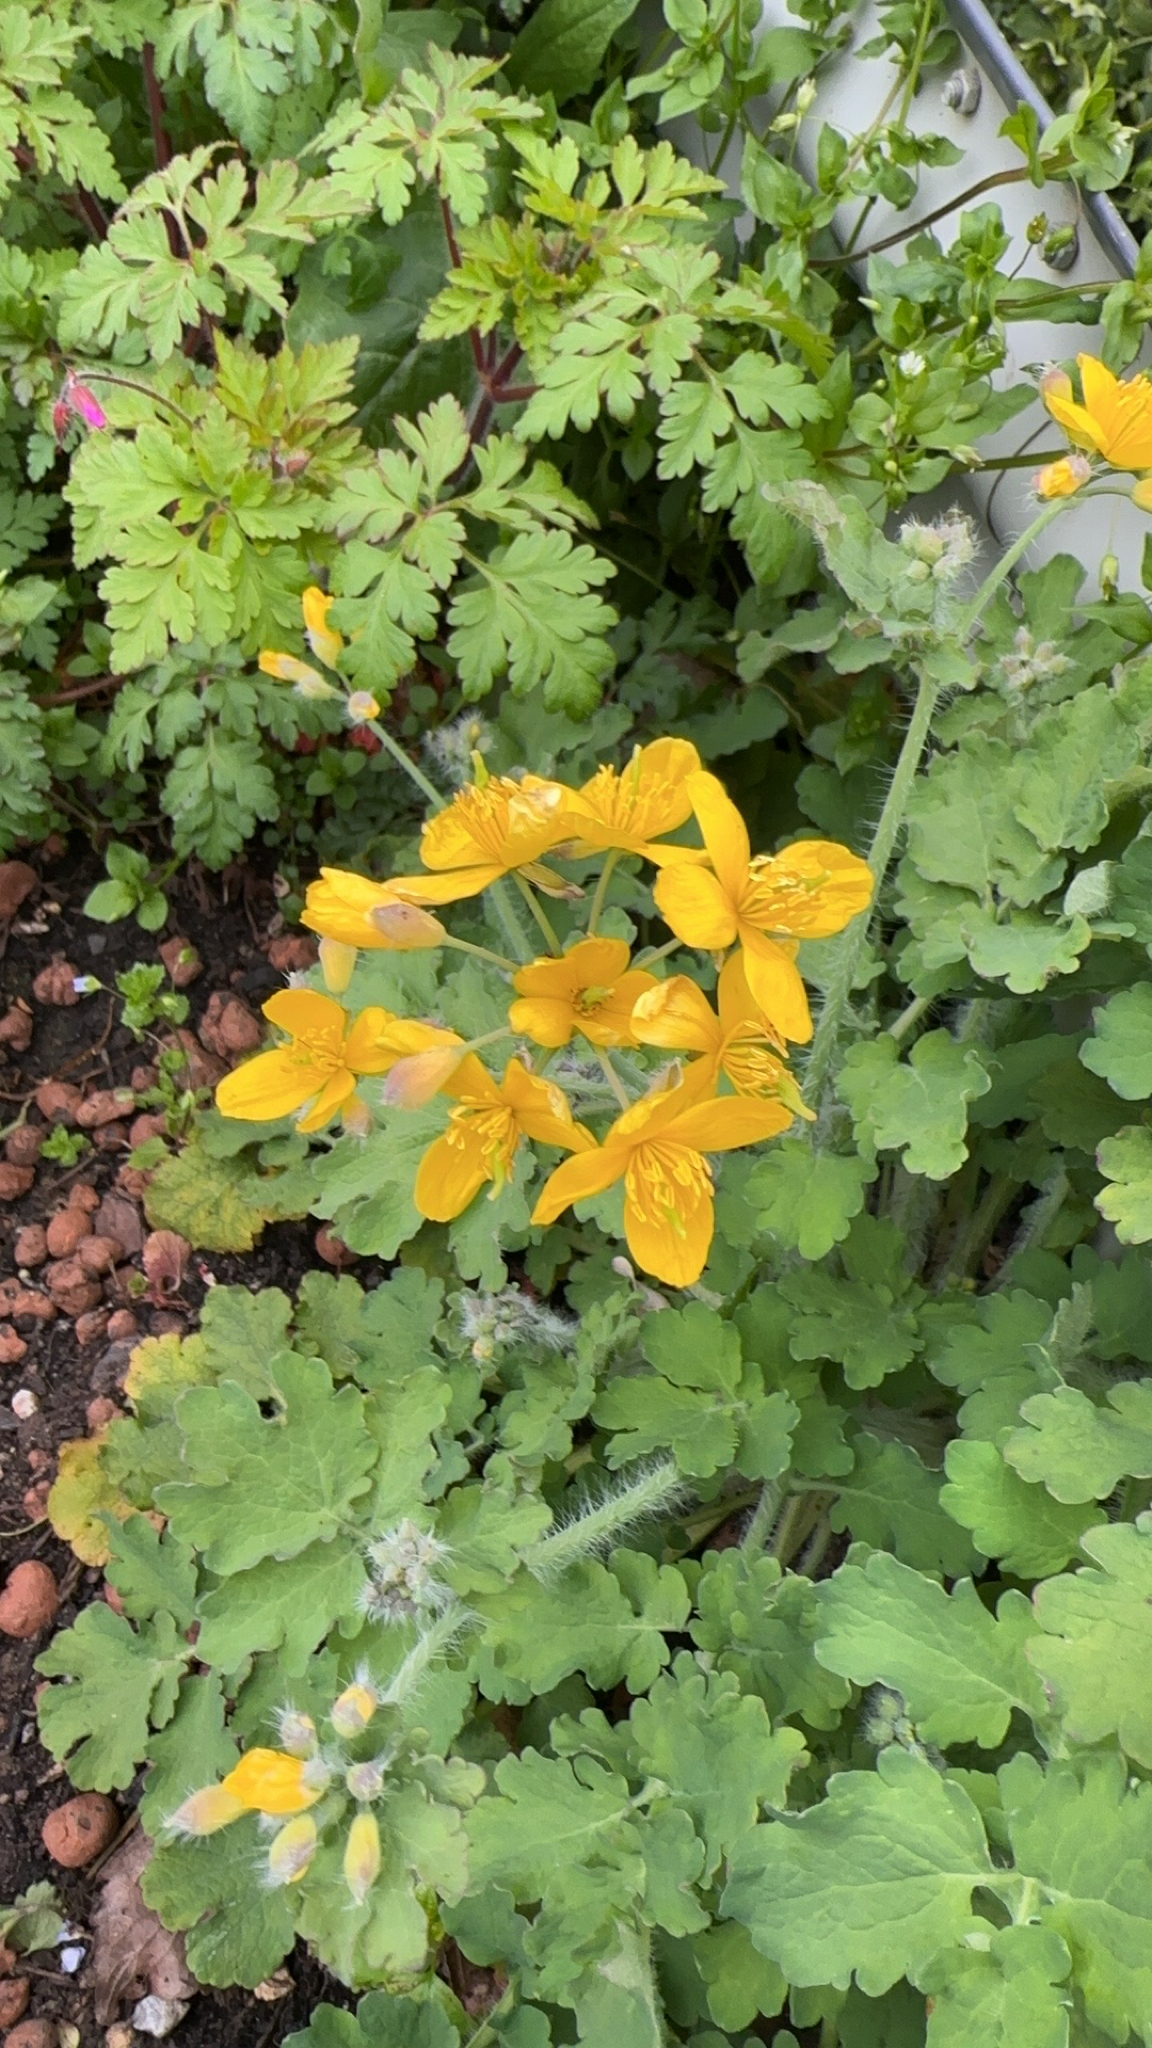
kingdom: Plantae
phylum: Tracheophyta
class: Magnoliopsida
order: Ranunculales
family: Papaveraceae
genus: Chelidonium
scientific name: Chelidonium majus
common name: Greater celandine
